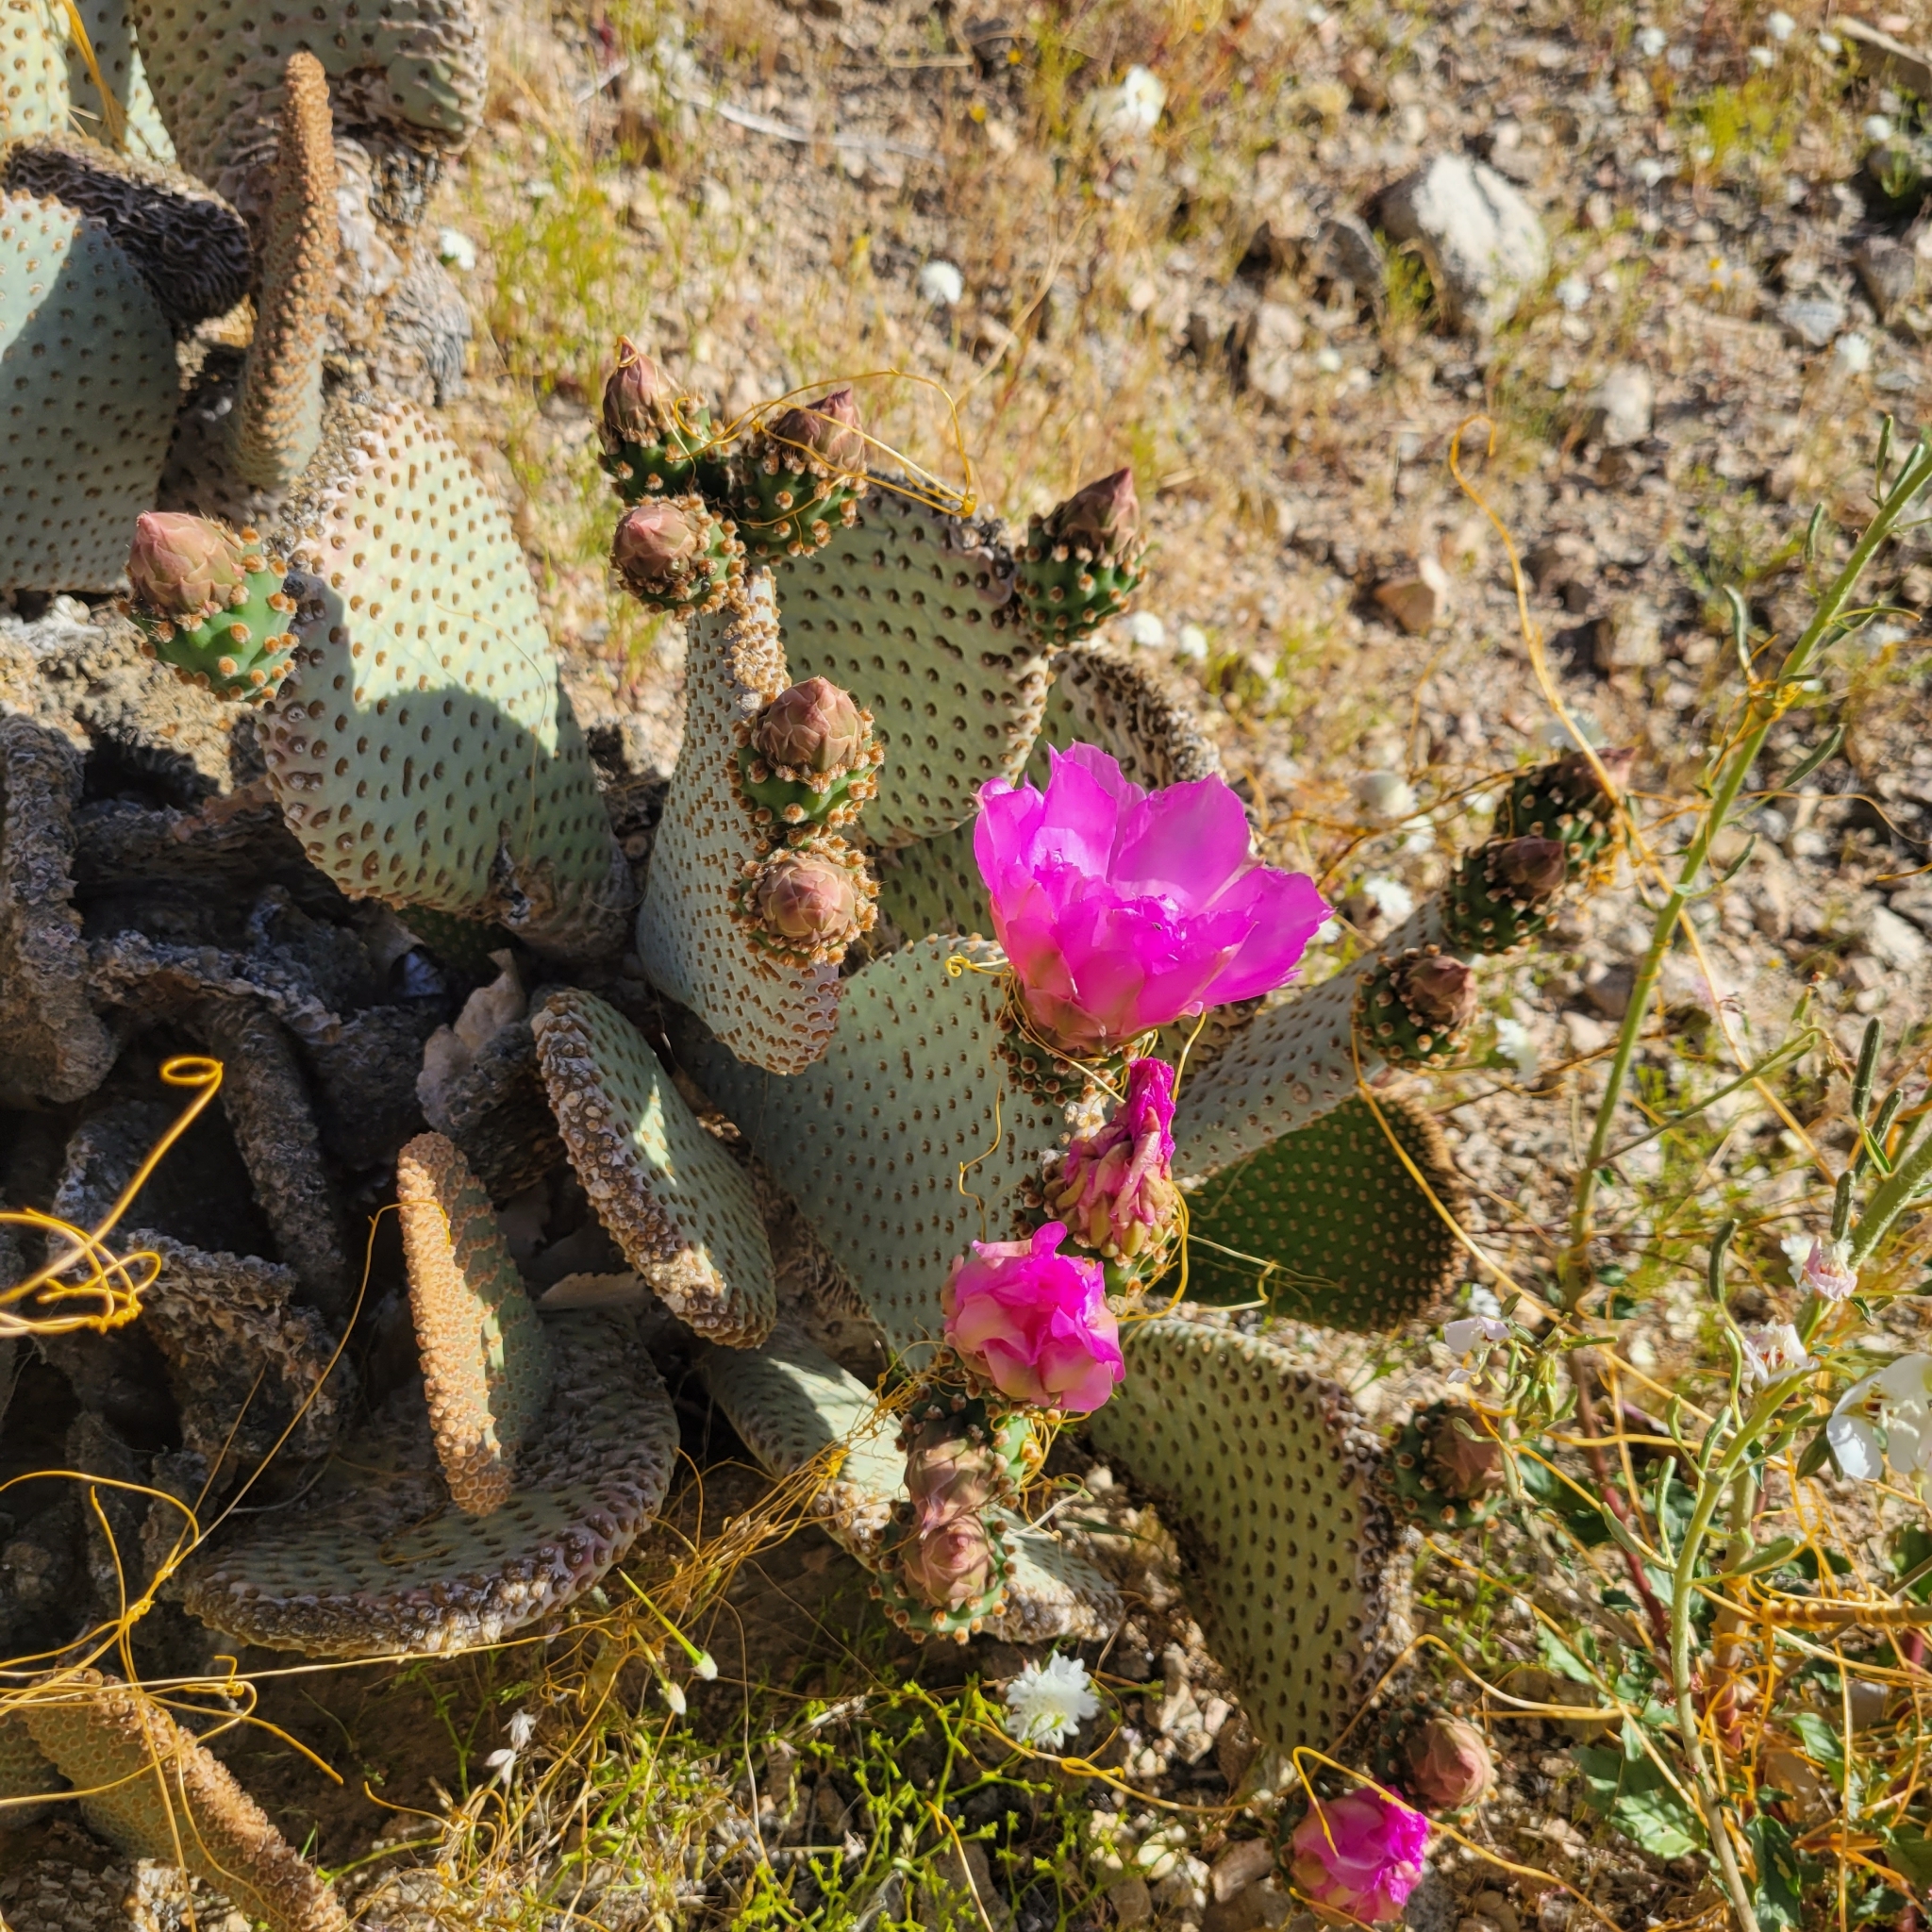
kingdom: Plantae
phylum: Tracheophyta
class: Magnoliopsida
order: Caryophyllales
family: Cactaceae
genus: Opuntia
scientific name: Opuntia basilaris
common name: Beavertail prickly-pear
